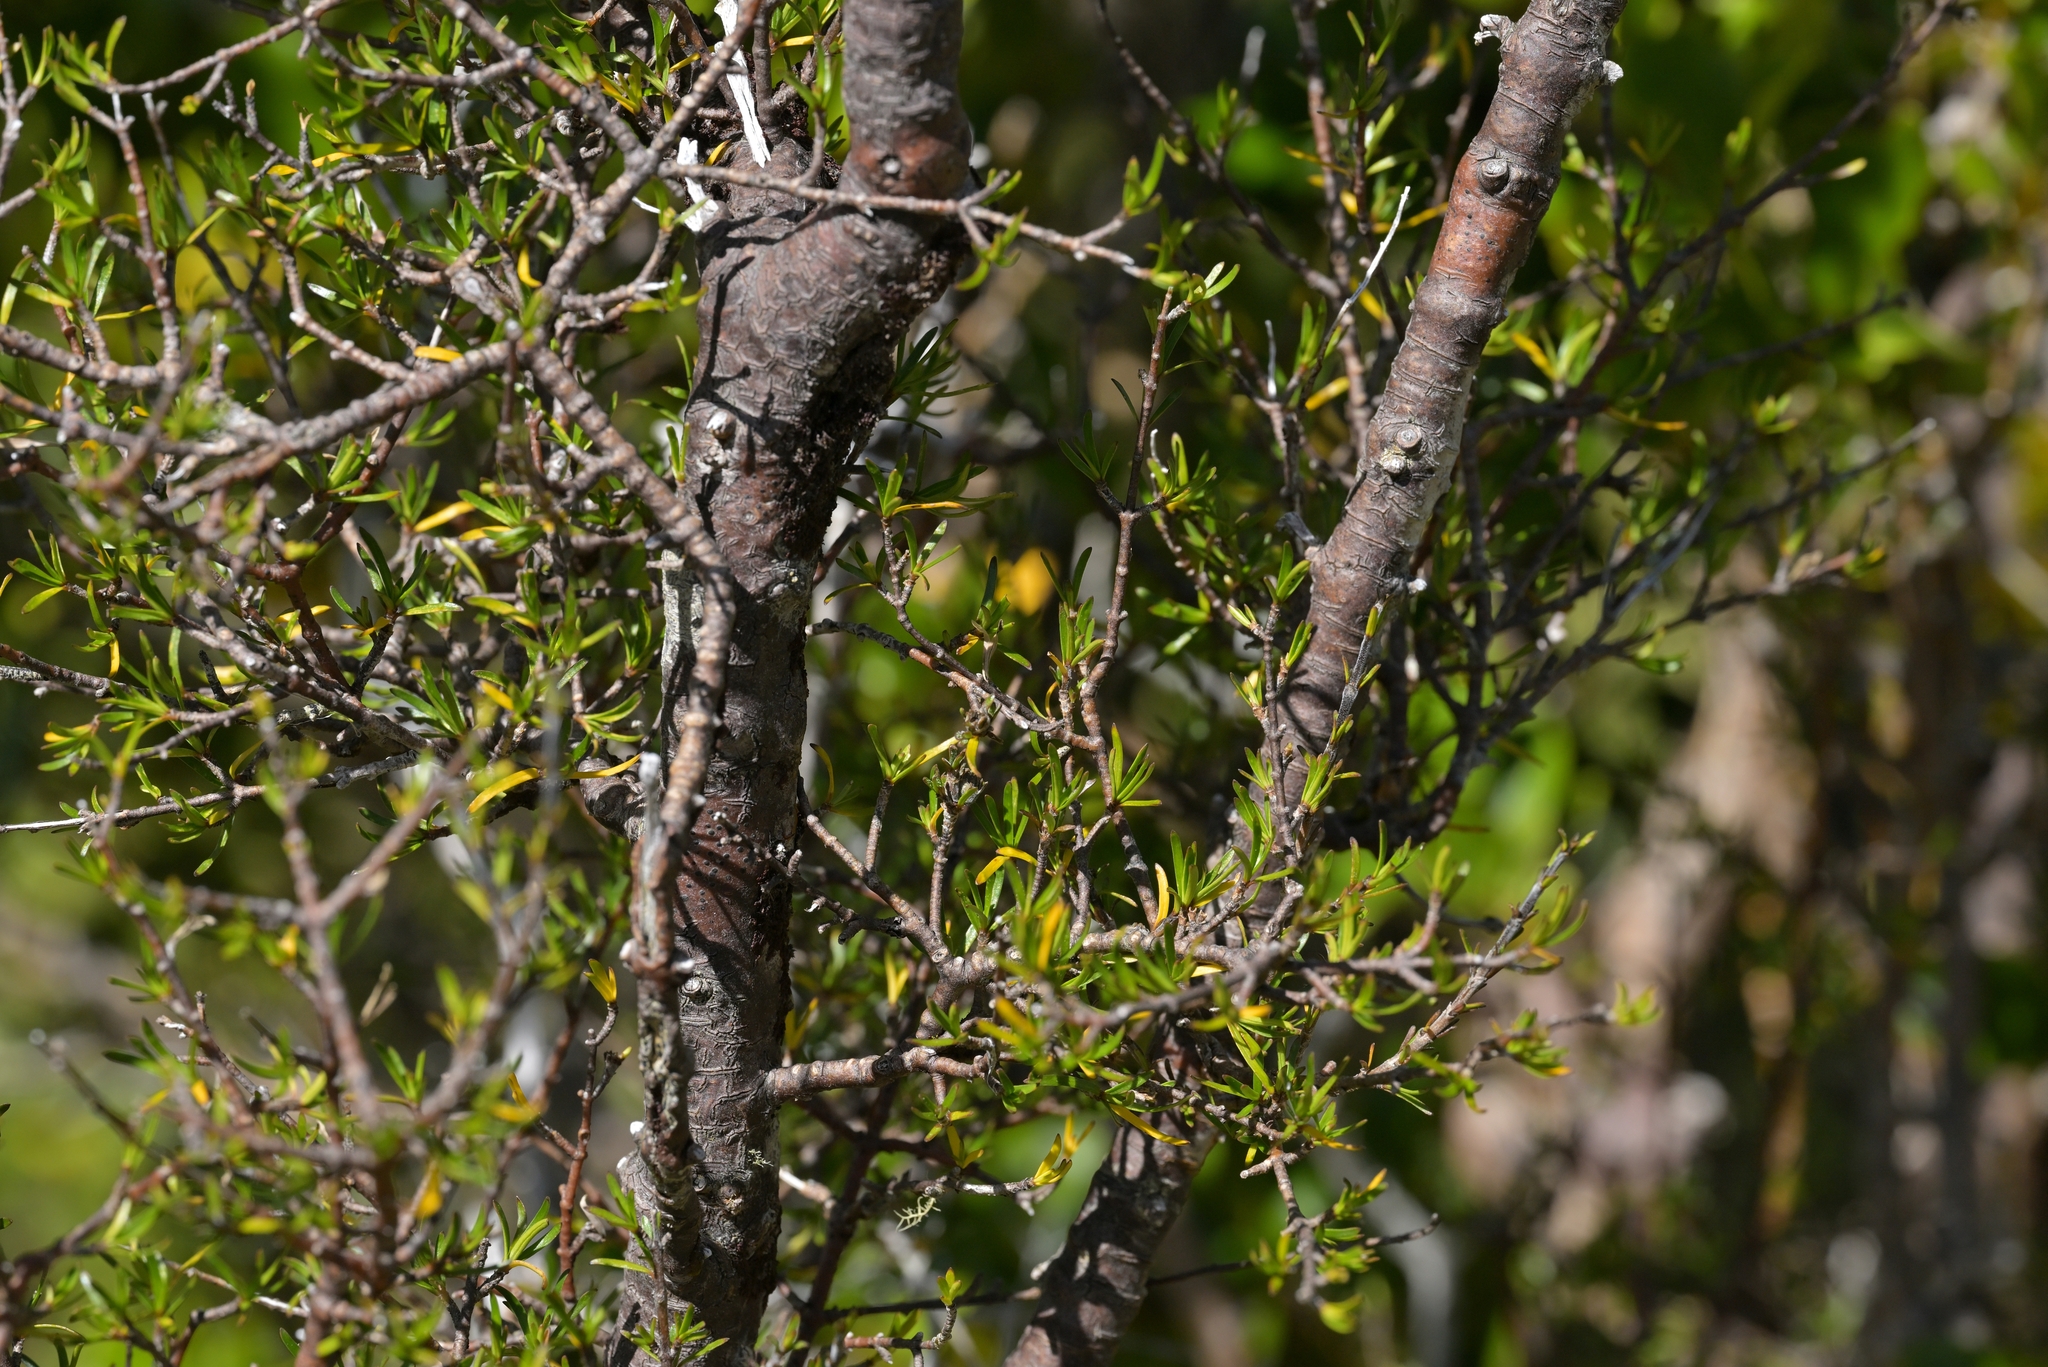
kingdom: Plantae
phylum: Tracheophyta
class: Magnoliopsida
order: Gentianales
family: Rubiaceae
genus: Coprosma
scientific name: Coprosma rugosa
